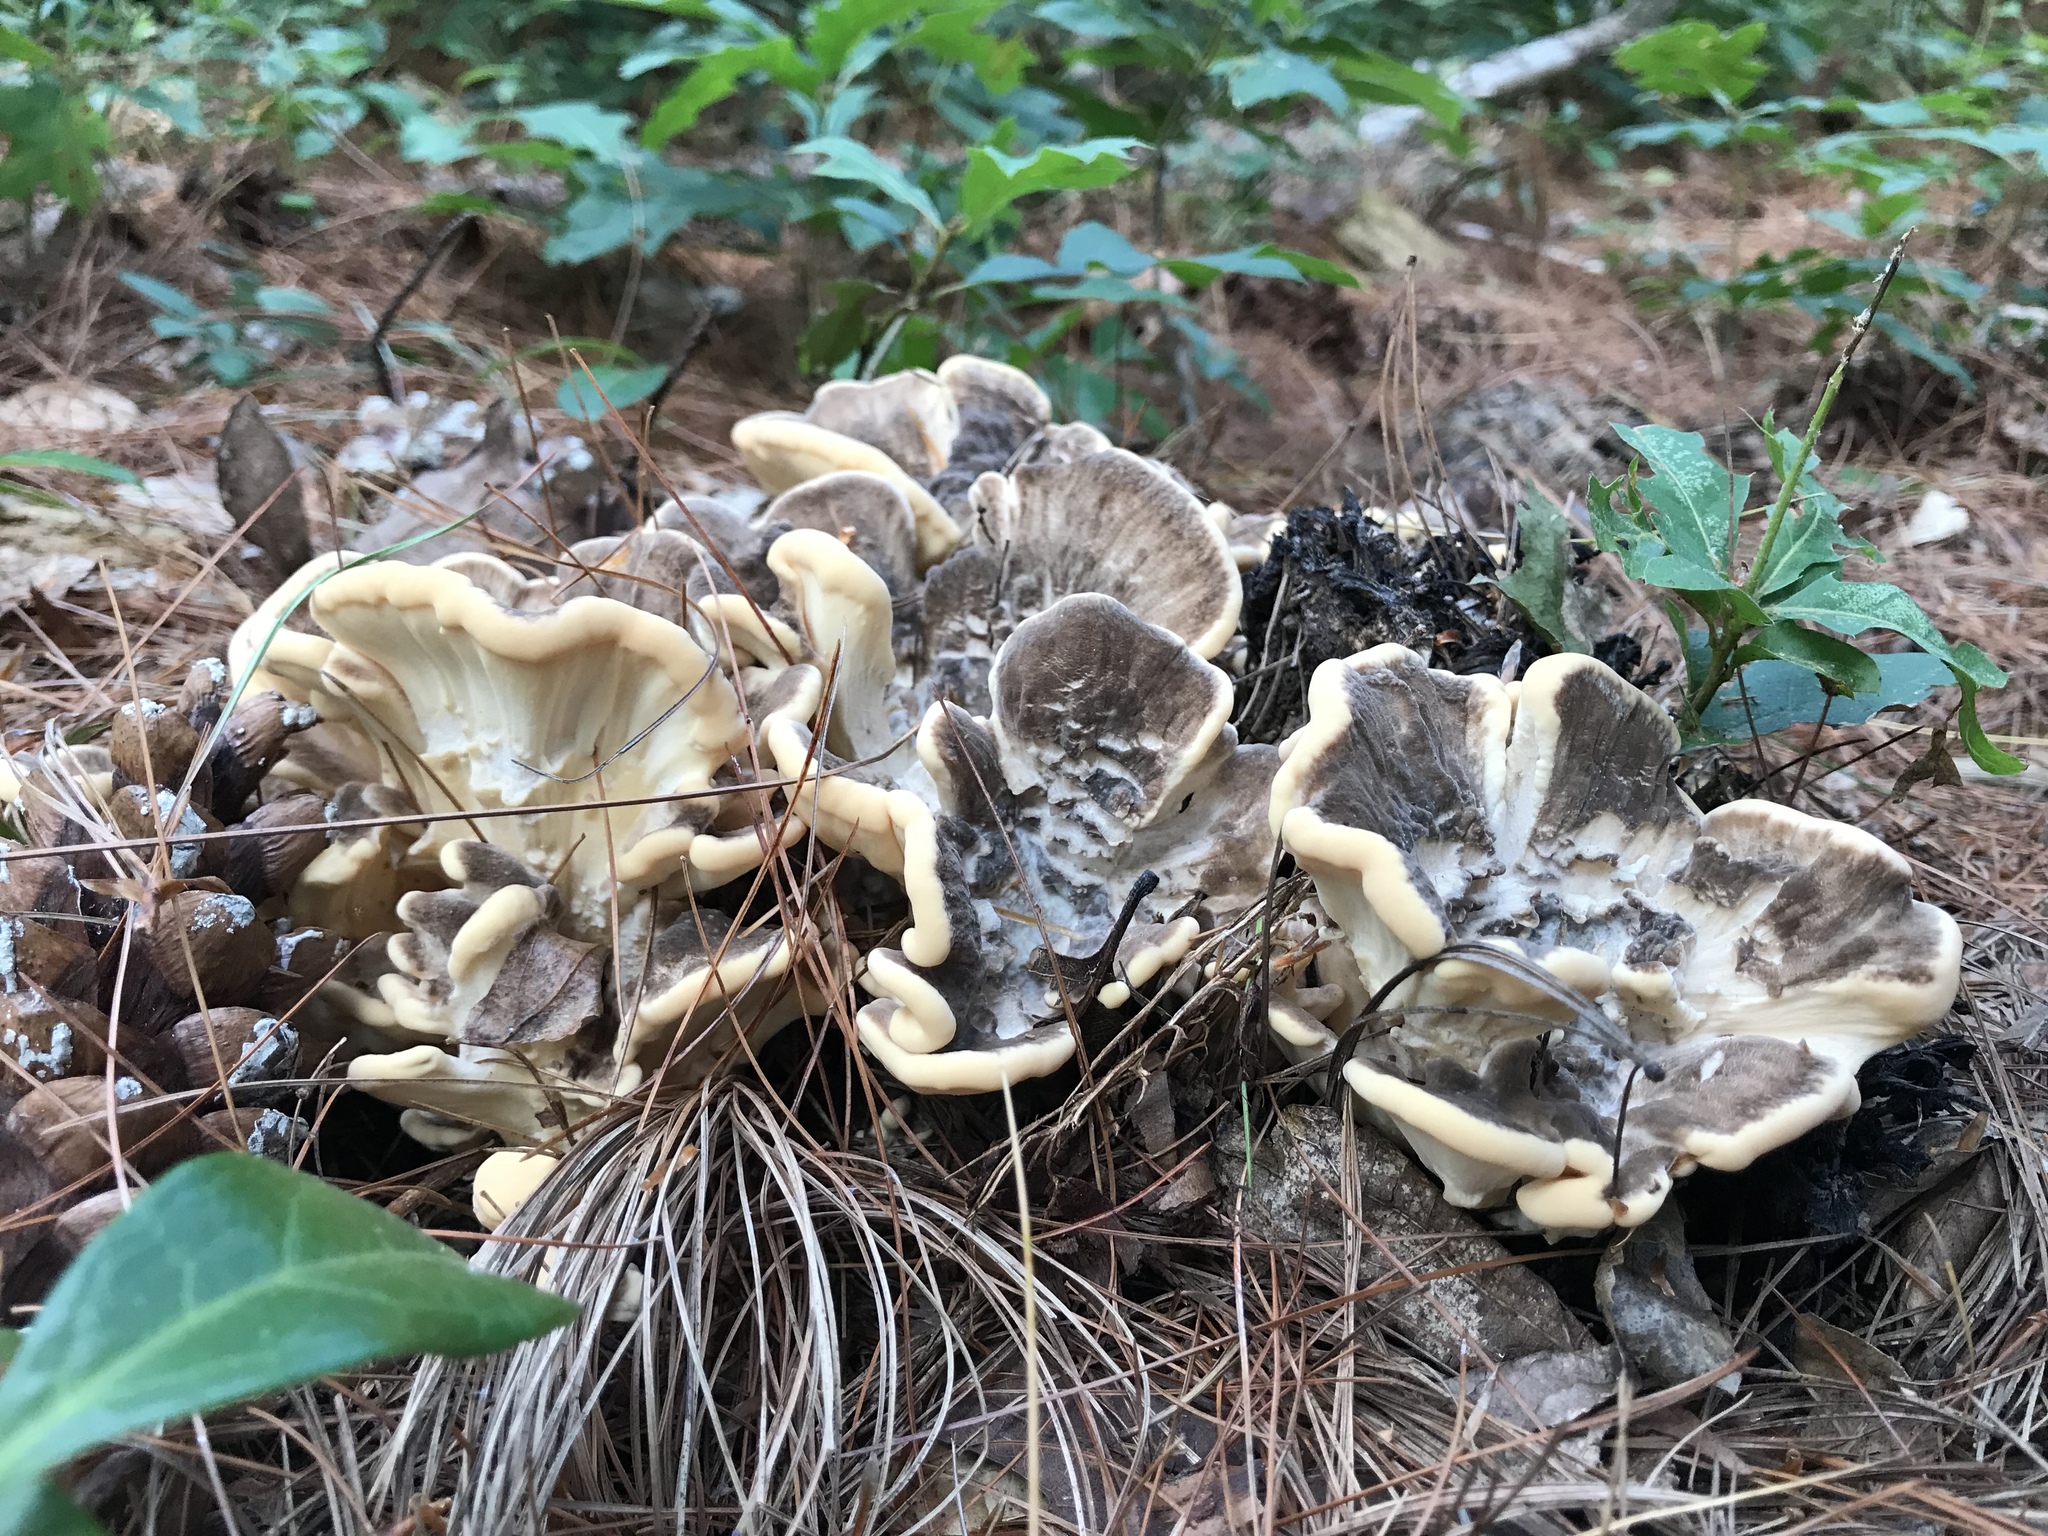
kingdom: Fungi
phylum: Basidiomycota
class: Agaricomycetes
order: Polyporales
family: Meripilaceae
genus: Meripilus
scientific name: Meripilus sumstinei
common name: Black-staining polypore
